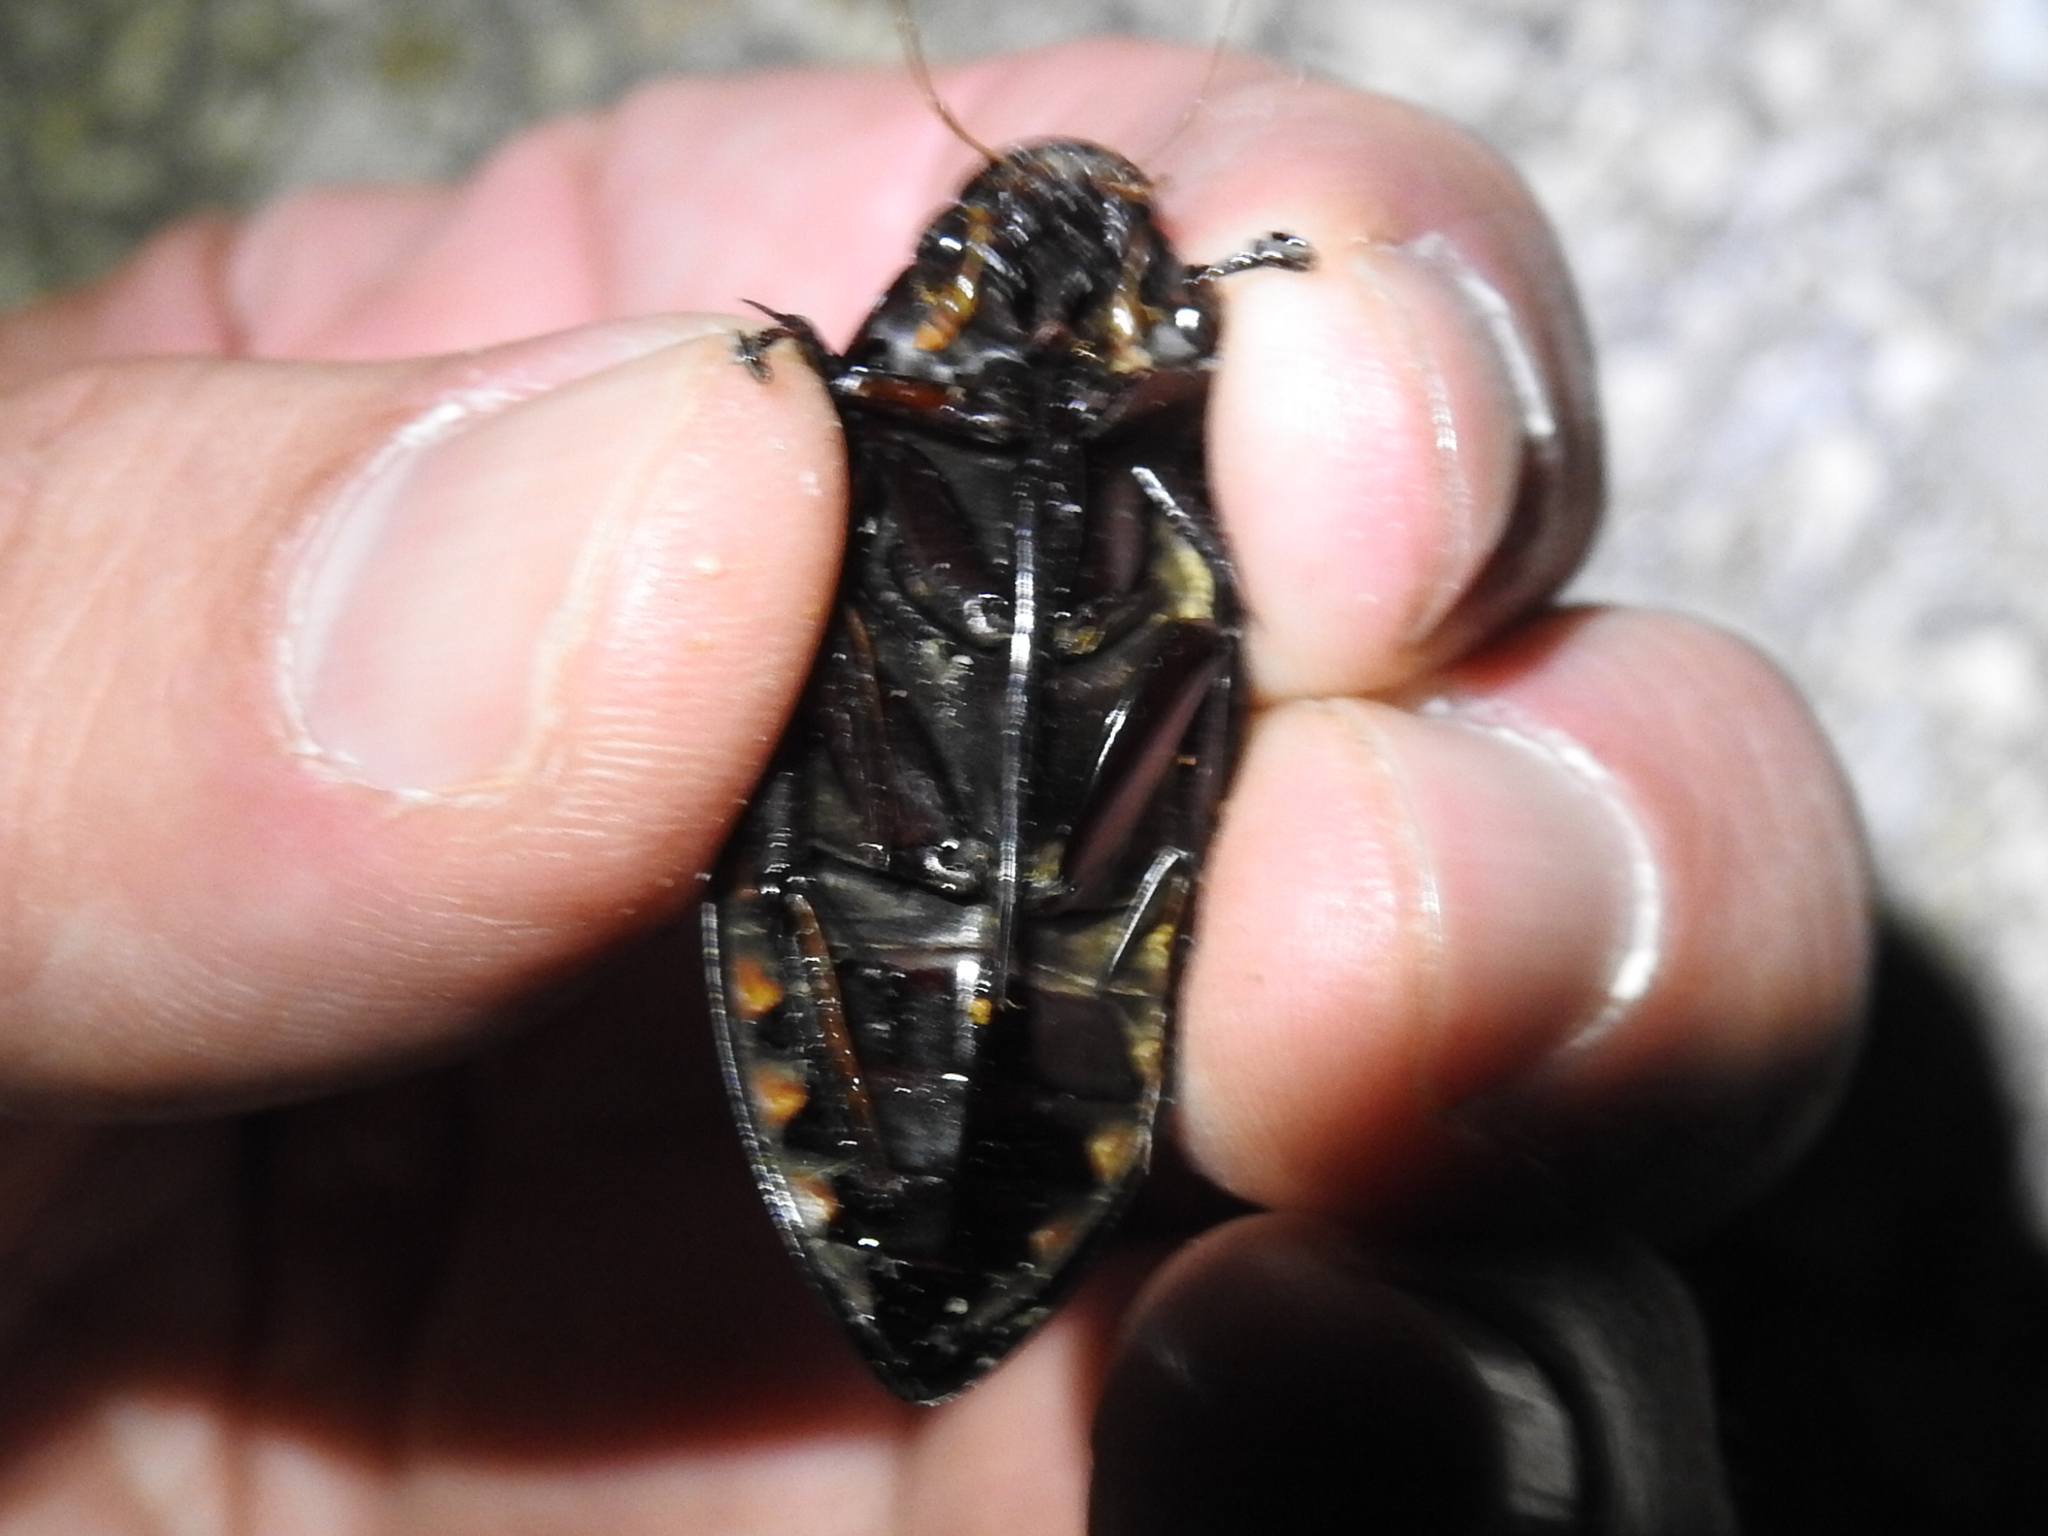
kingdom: Animalia
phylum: Arthropoda
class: Insecta
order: Coleoptera
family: Hydrophilidae
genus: Hydrophilus
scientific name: Hydrophilus triangularis
